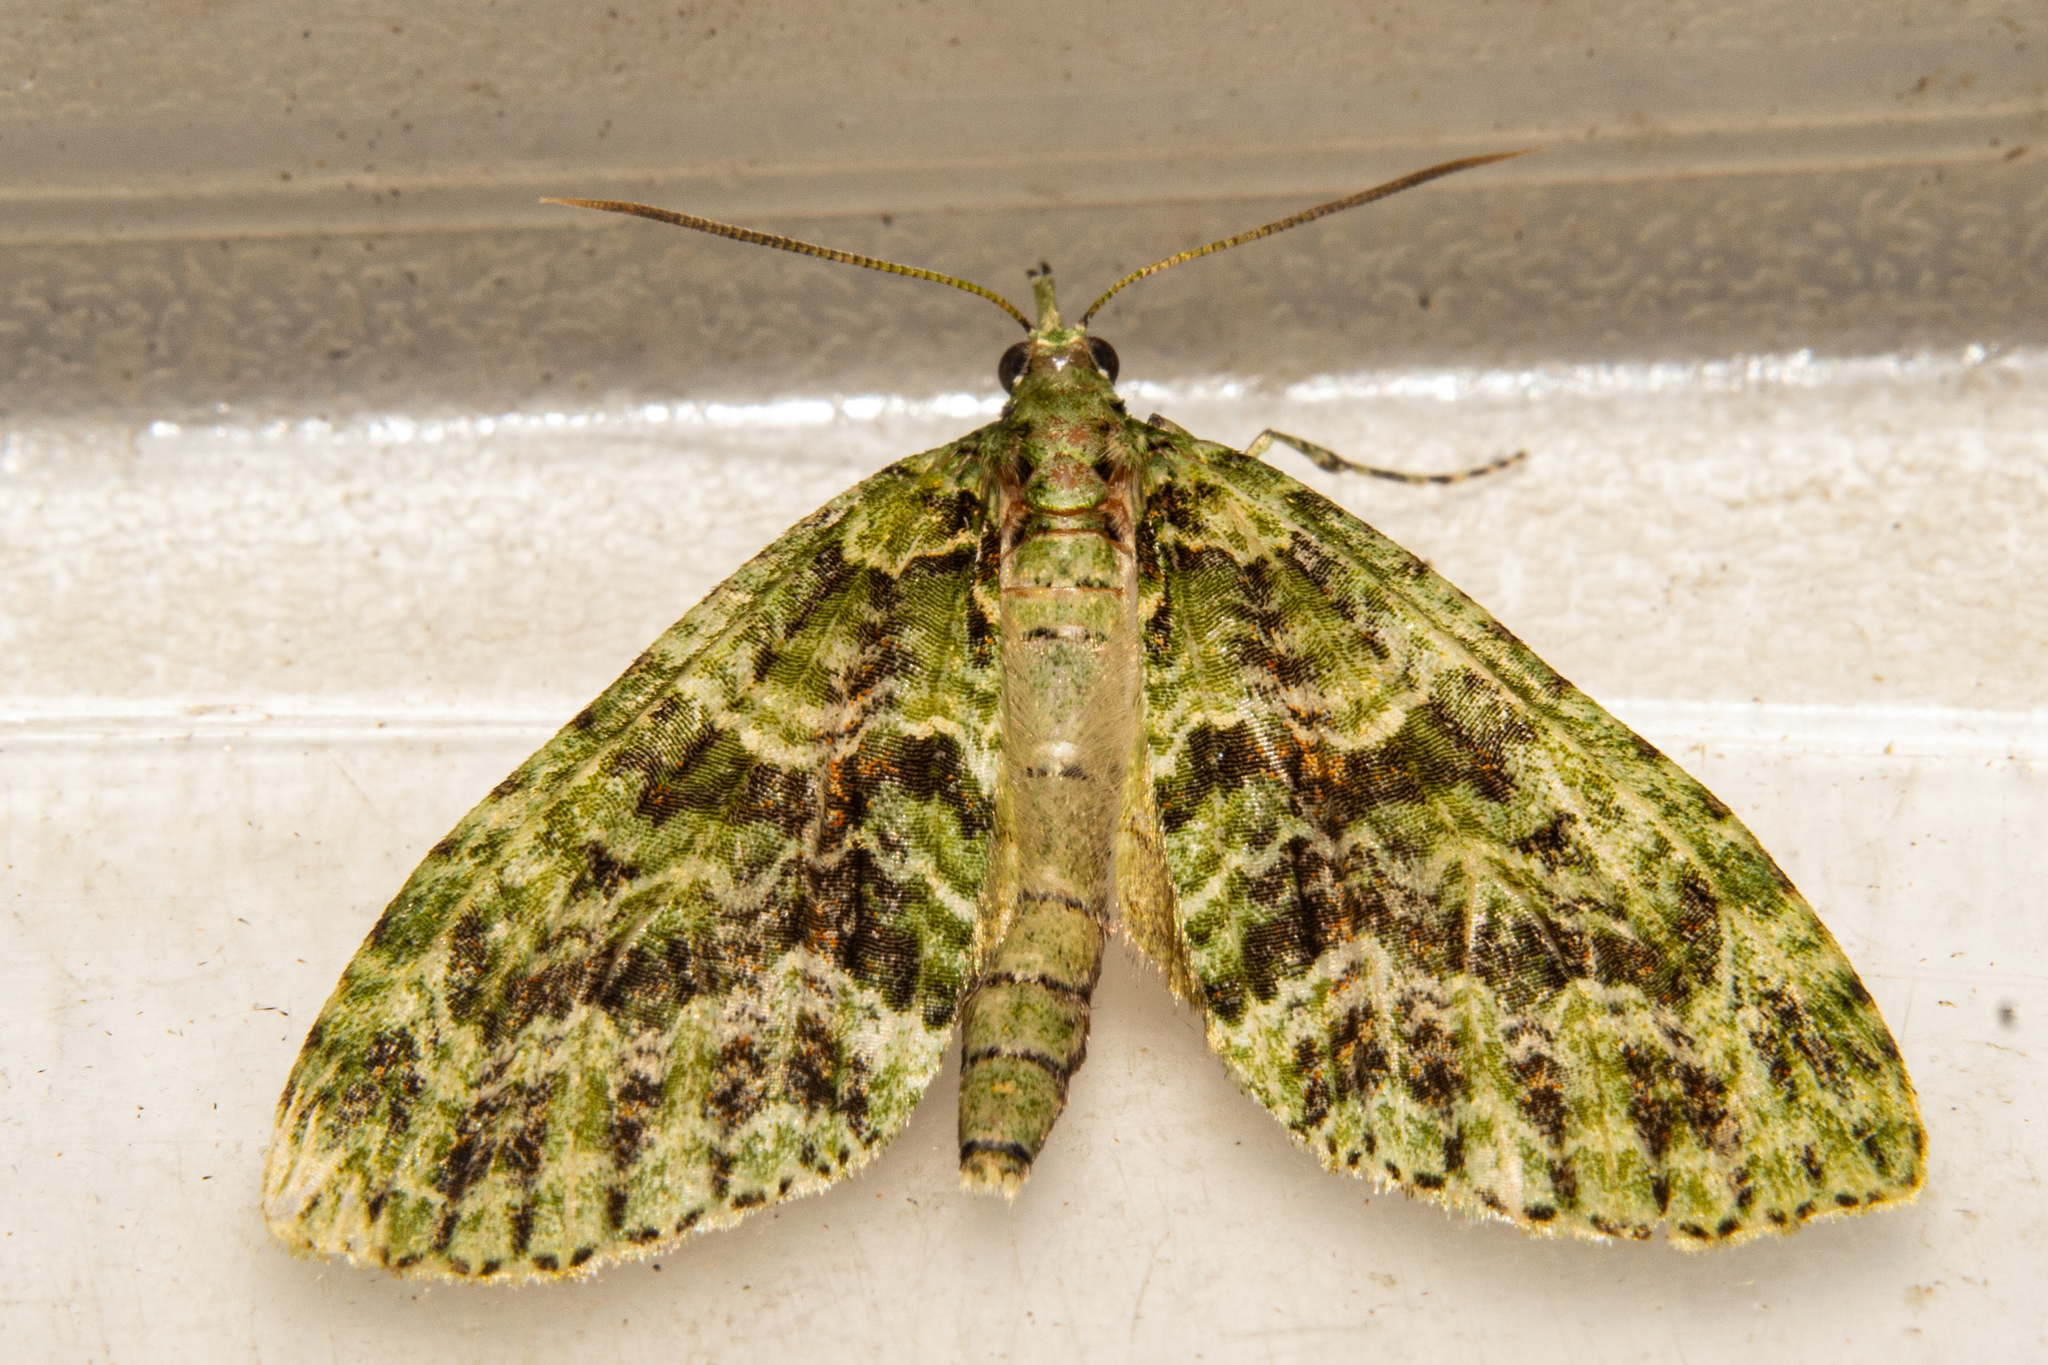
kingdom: Animalia
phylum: Arthropoda
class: Insecta
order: Lepidoptera
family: Geometridae
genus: Tatosoma
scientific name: Tatosoma tipulata
